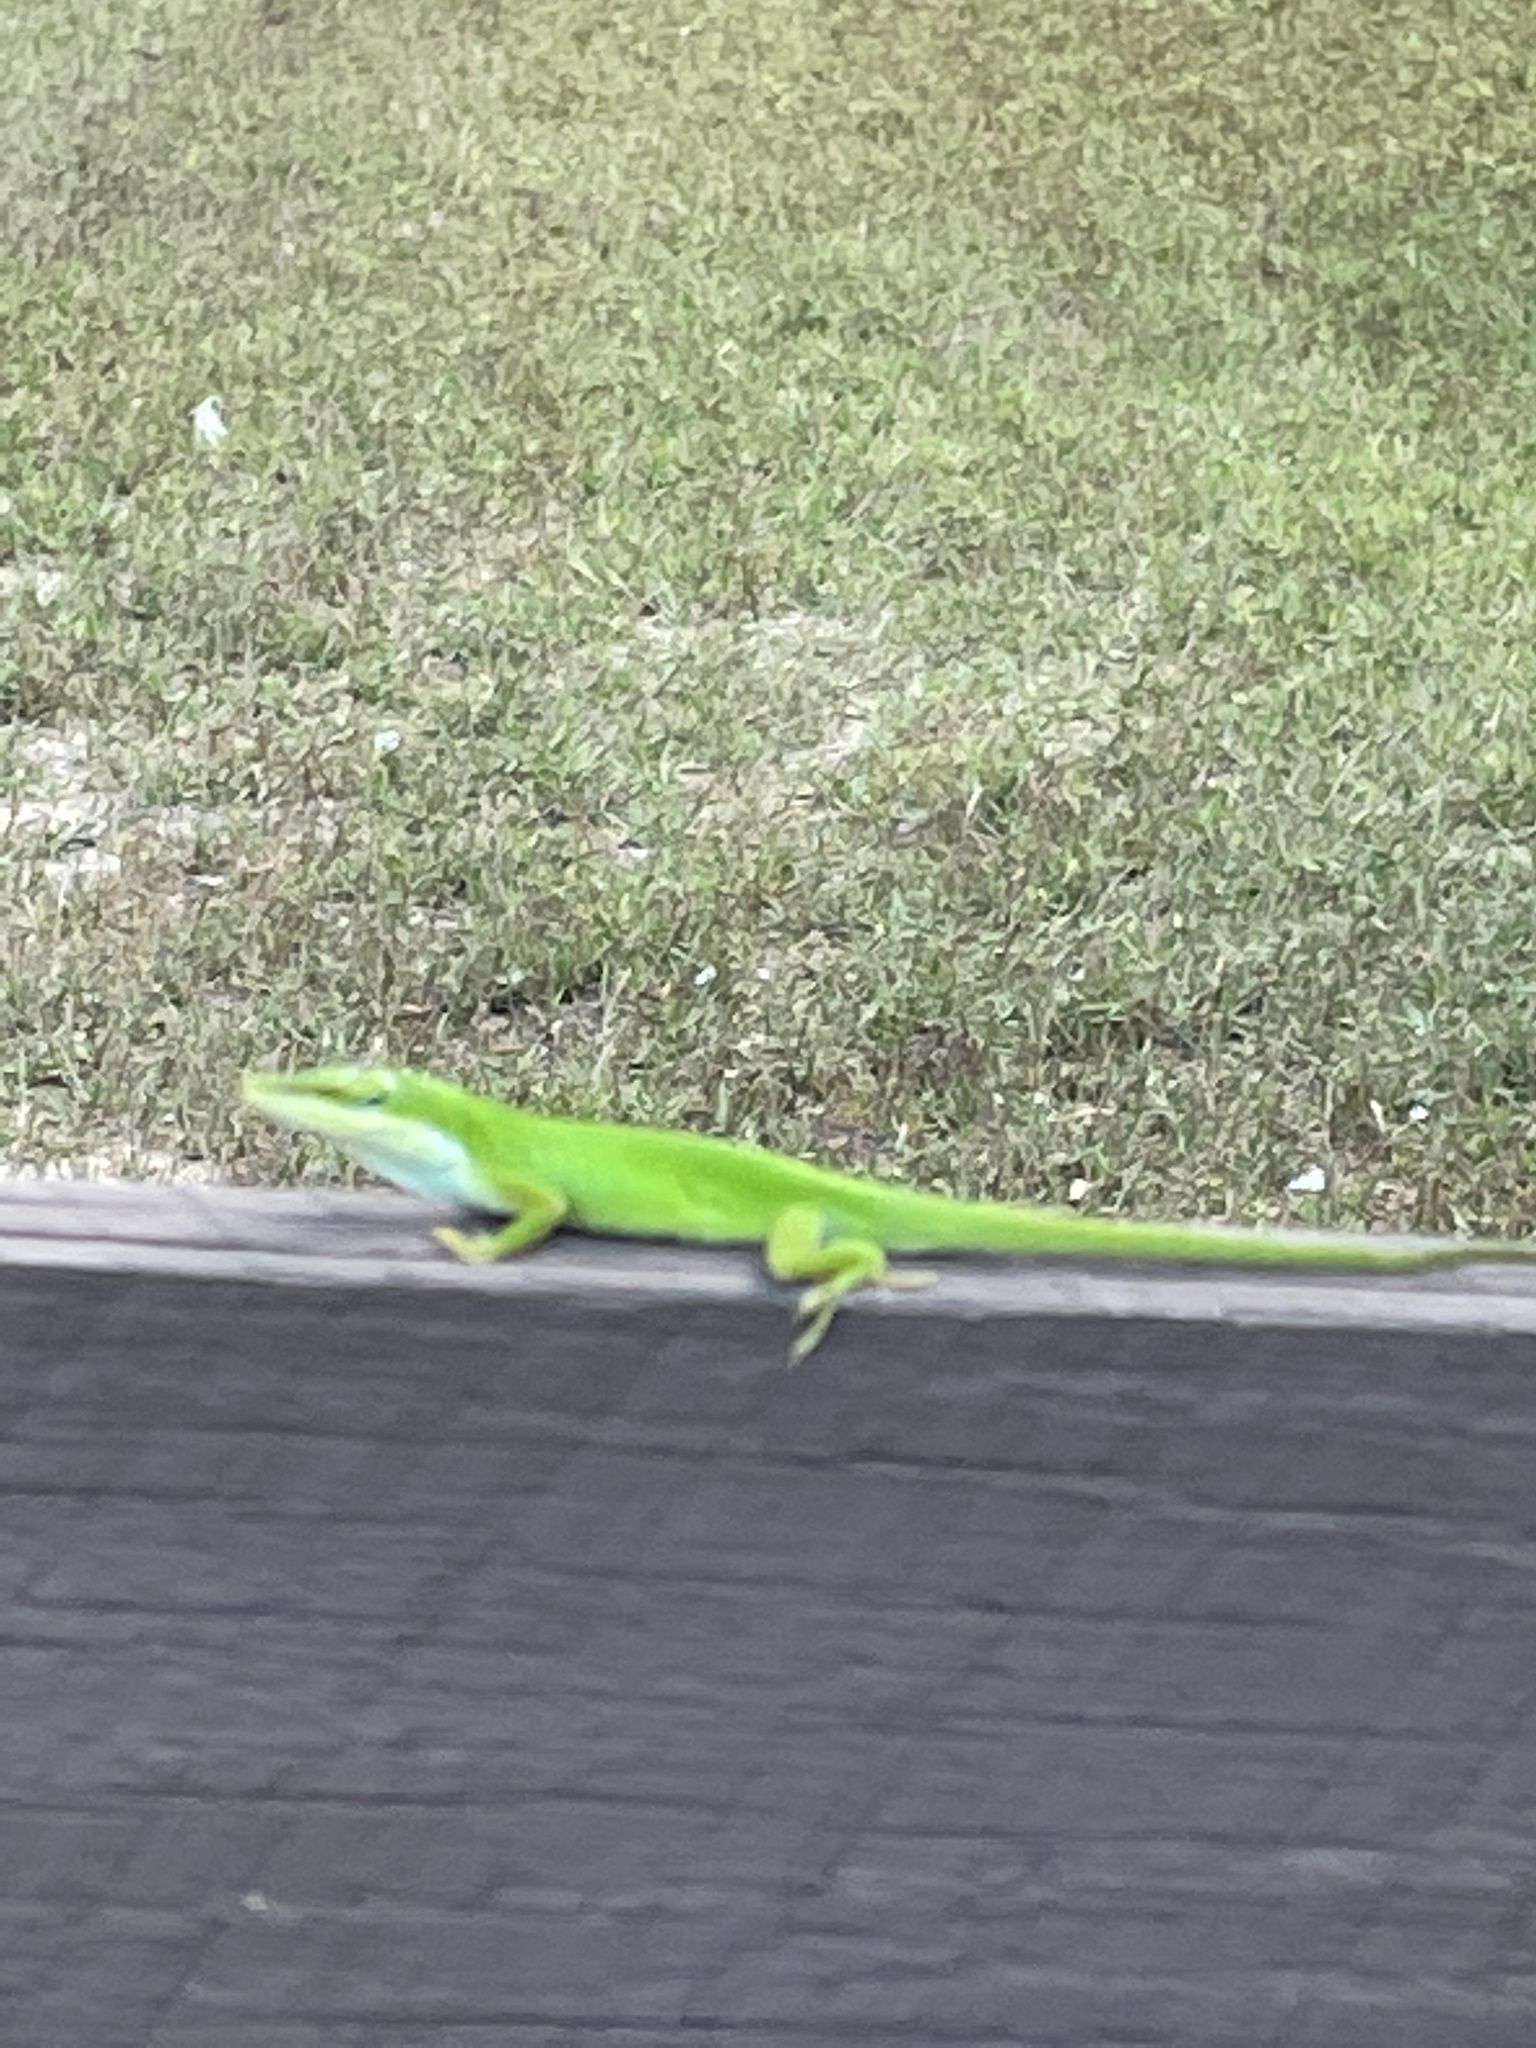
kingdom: Animalia
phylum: Chordata
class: Squamata
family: Dactyloidae
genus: Anolis
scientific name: Anolis carolinensis
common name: Green anole
